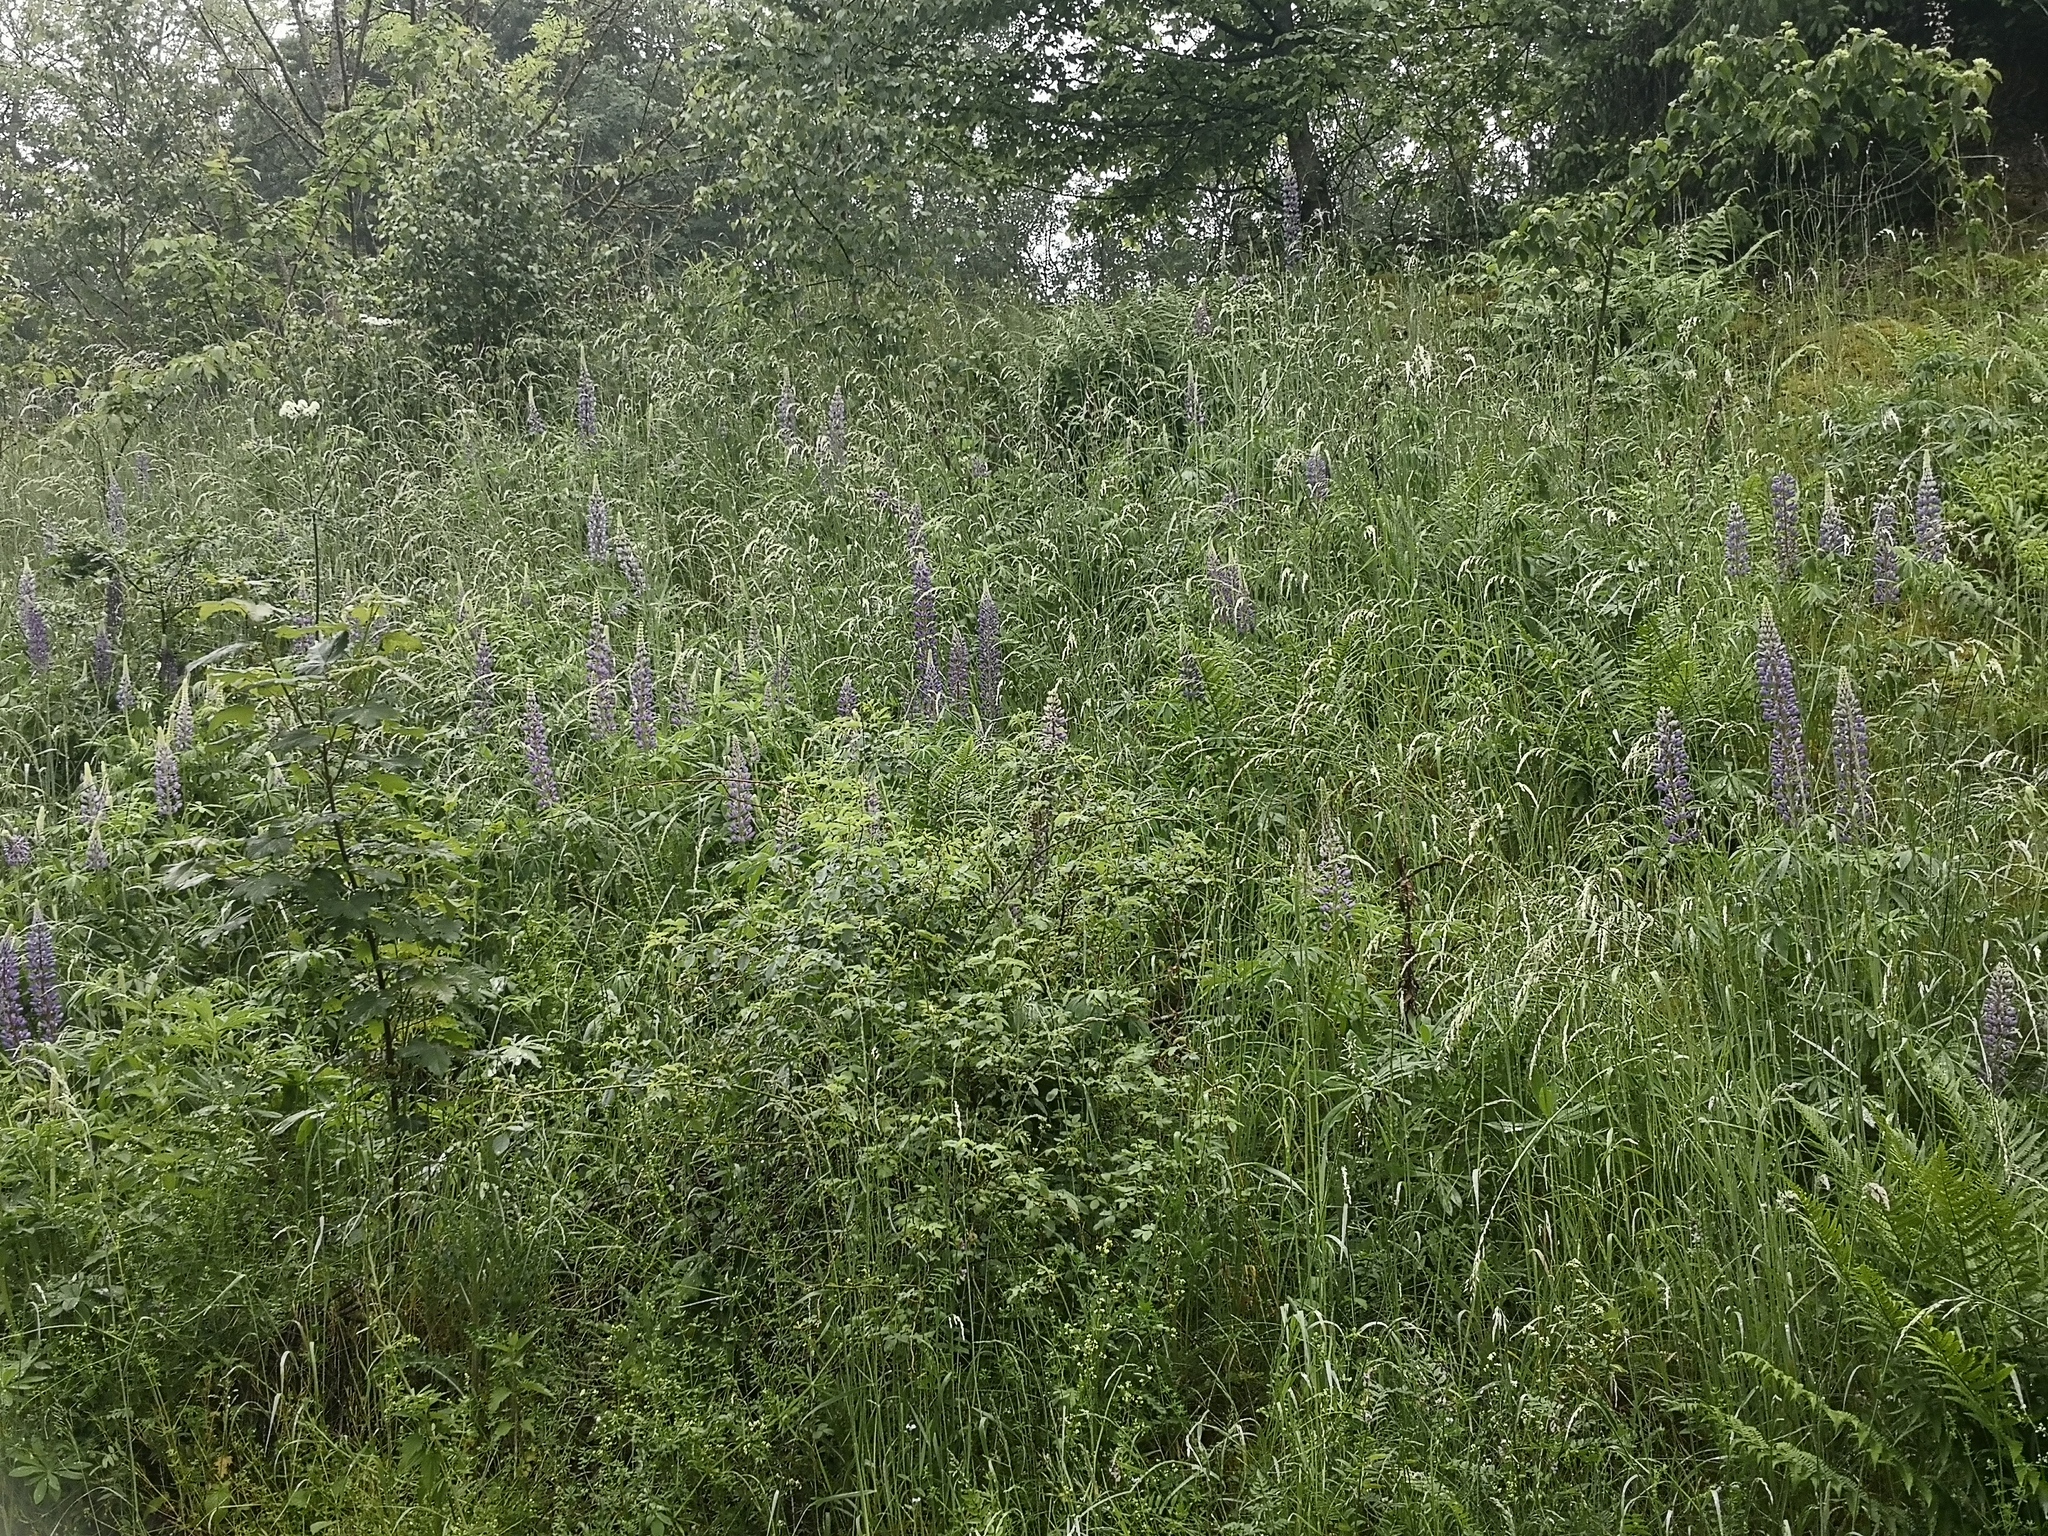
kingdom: Plantae
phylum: Tracheophyta
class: Magnoliopsida
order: Fabales
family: Fabaceae
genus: Lupinus
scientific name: Lupinus polyphyllus
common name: Garden lupin
